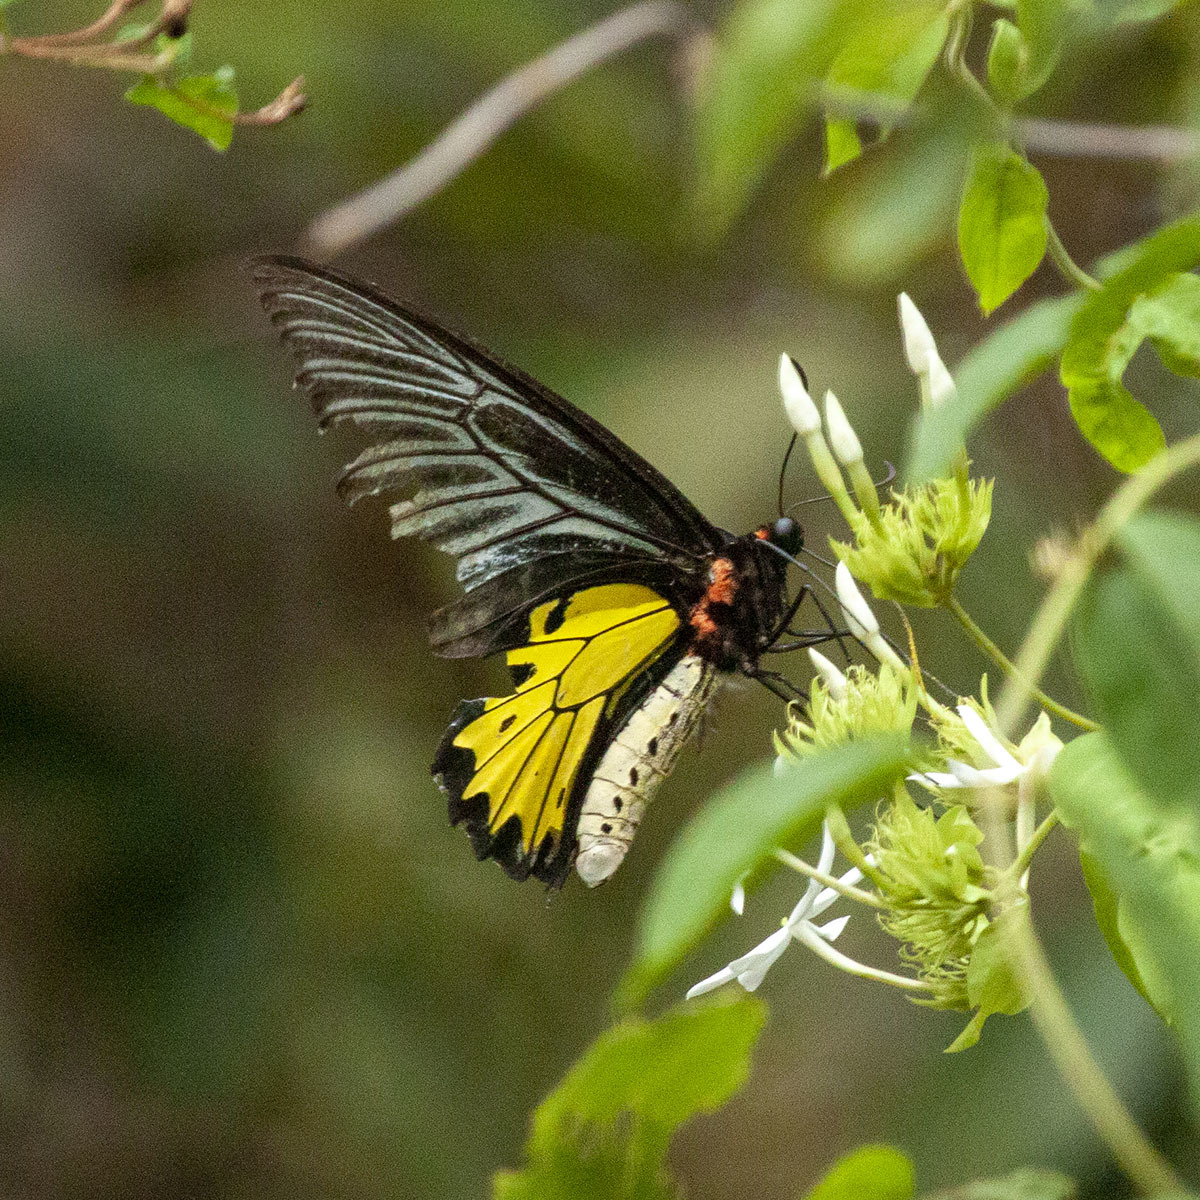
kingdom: Animalia
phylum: Arthropoda
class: Insecta
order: Lepidoptera
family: Papilionidae
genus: Troides
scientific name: Troides minos
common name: Malabar birdwing
